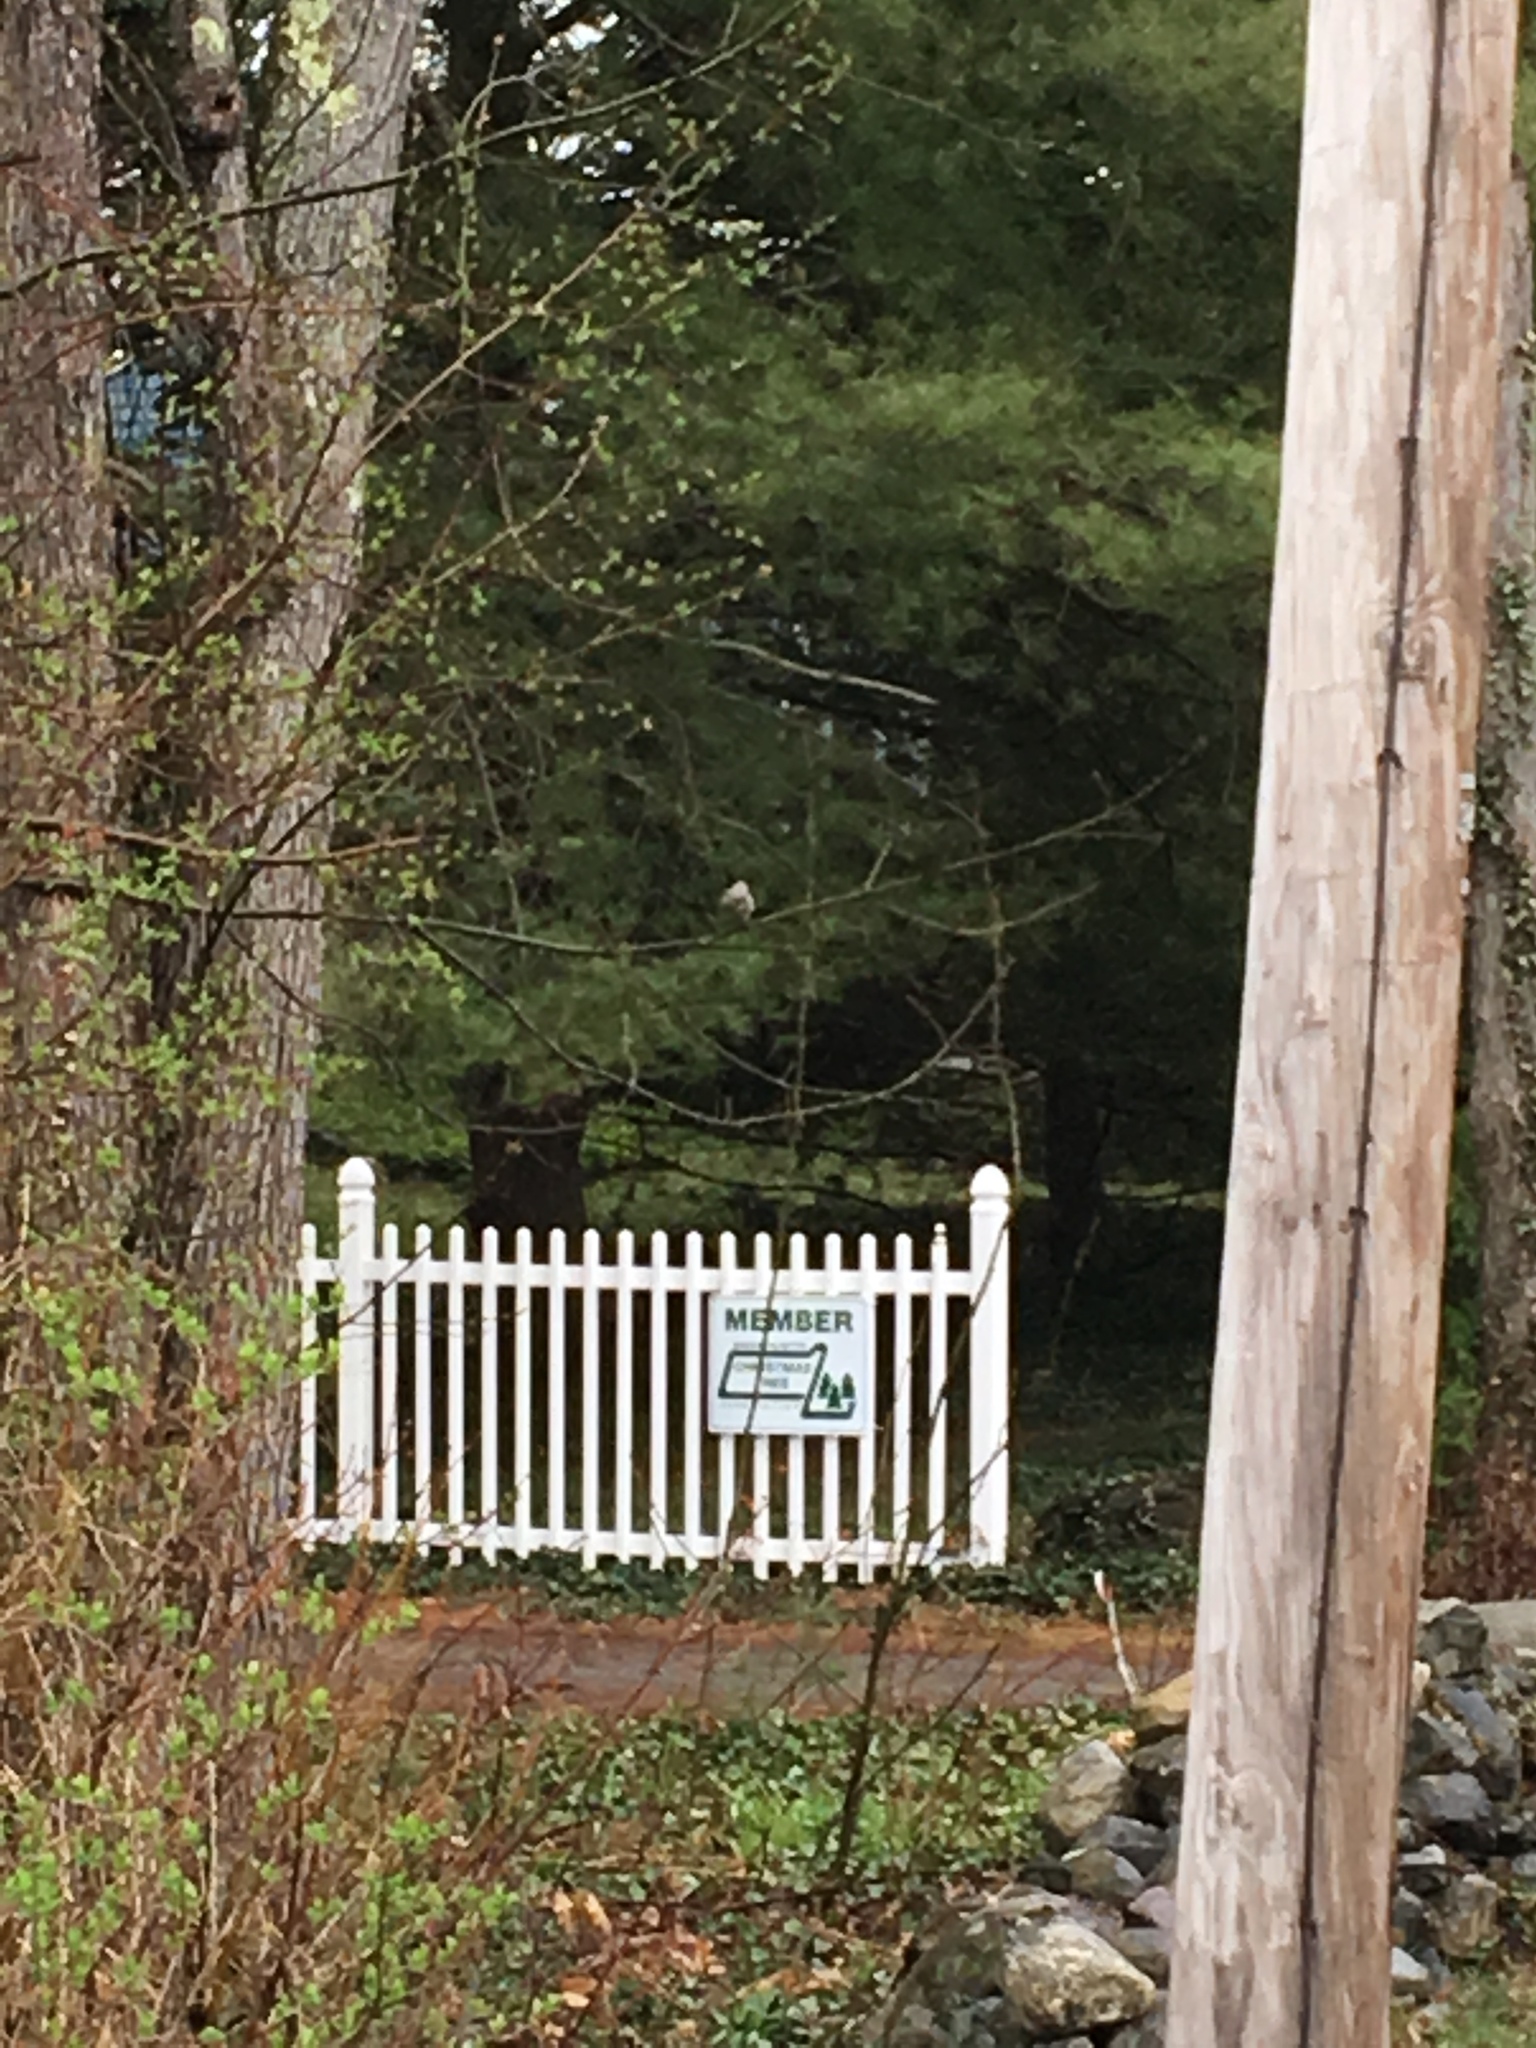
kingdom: Animalia
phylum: Chordata
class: Aves
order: Passeriformes
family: Mimidae
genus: Mimus
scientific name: Mimus polyglottos
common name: Northern mockingbird
